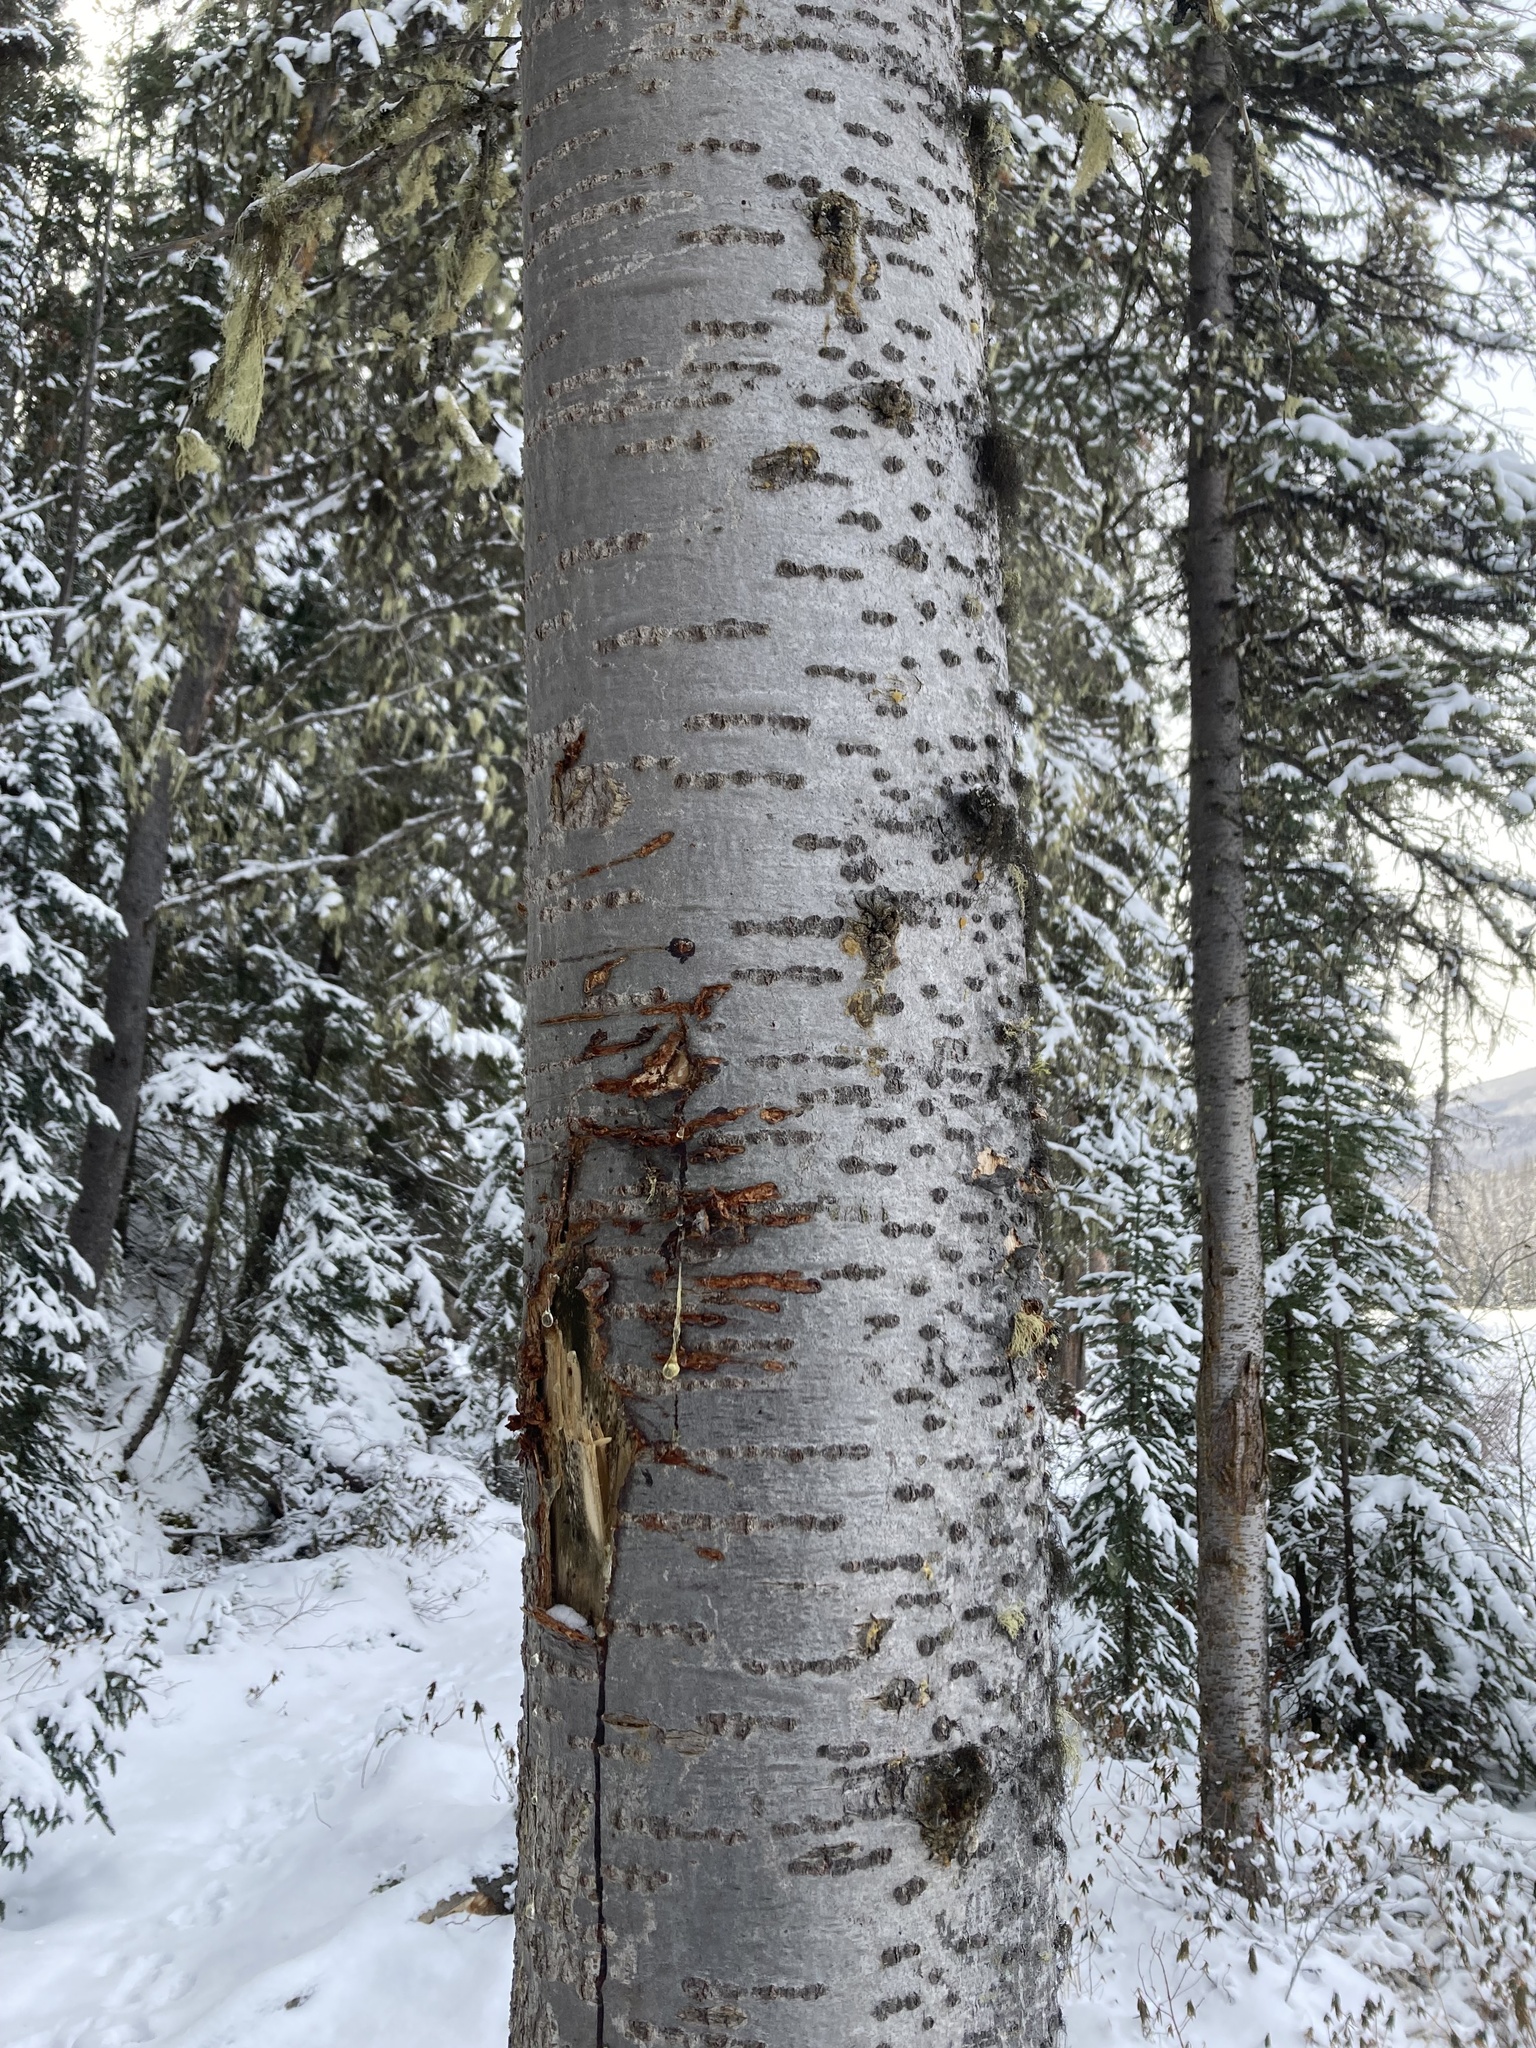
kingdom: Plantae
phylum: Tracheophyta
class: Pinopsida
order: Pinales
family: Pinaceae
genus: Abies
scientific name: Abies lasiocarpa
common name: Subalpine fir
